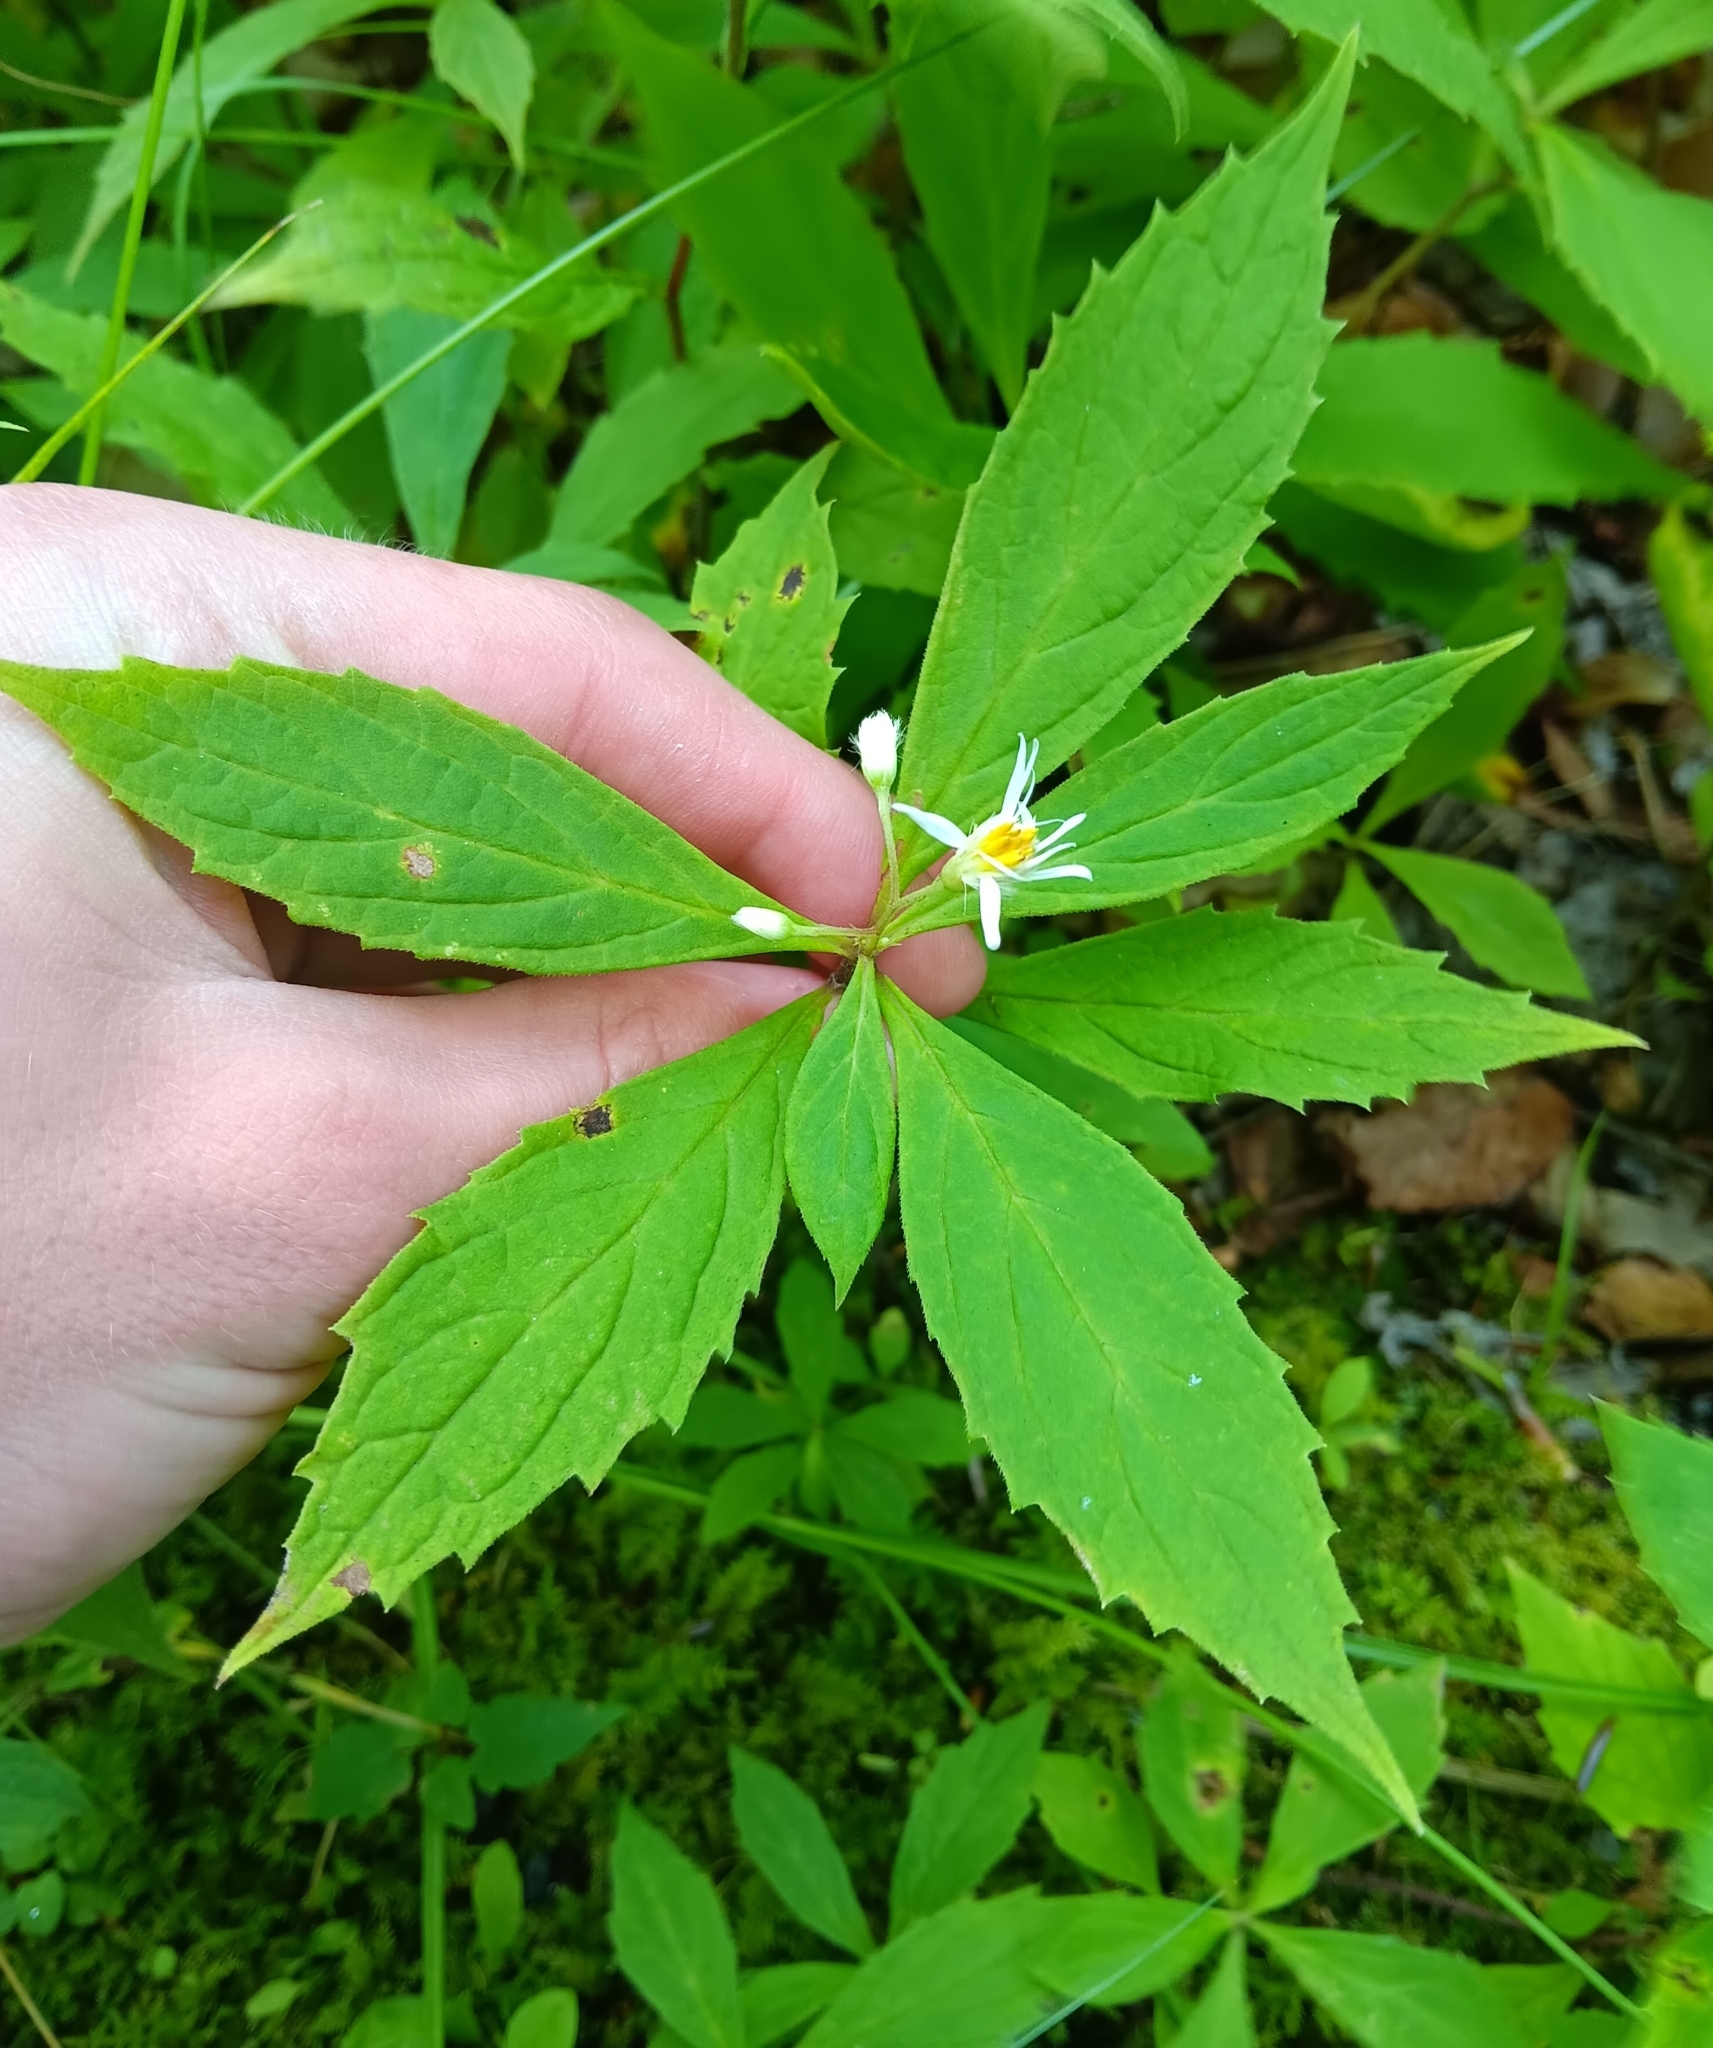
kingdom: Plantae
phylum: Tracheophyta
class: Magnoliopsida
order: Asterales
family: Asteraceae
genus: Oclemena
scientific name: Oclemena acuminata
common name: Mountain aster
